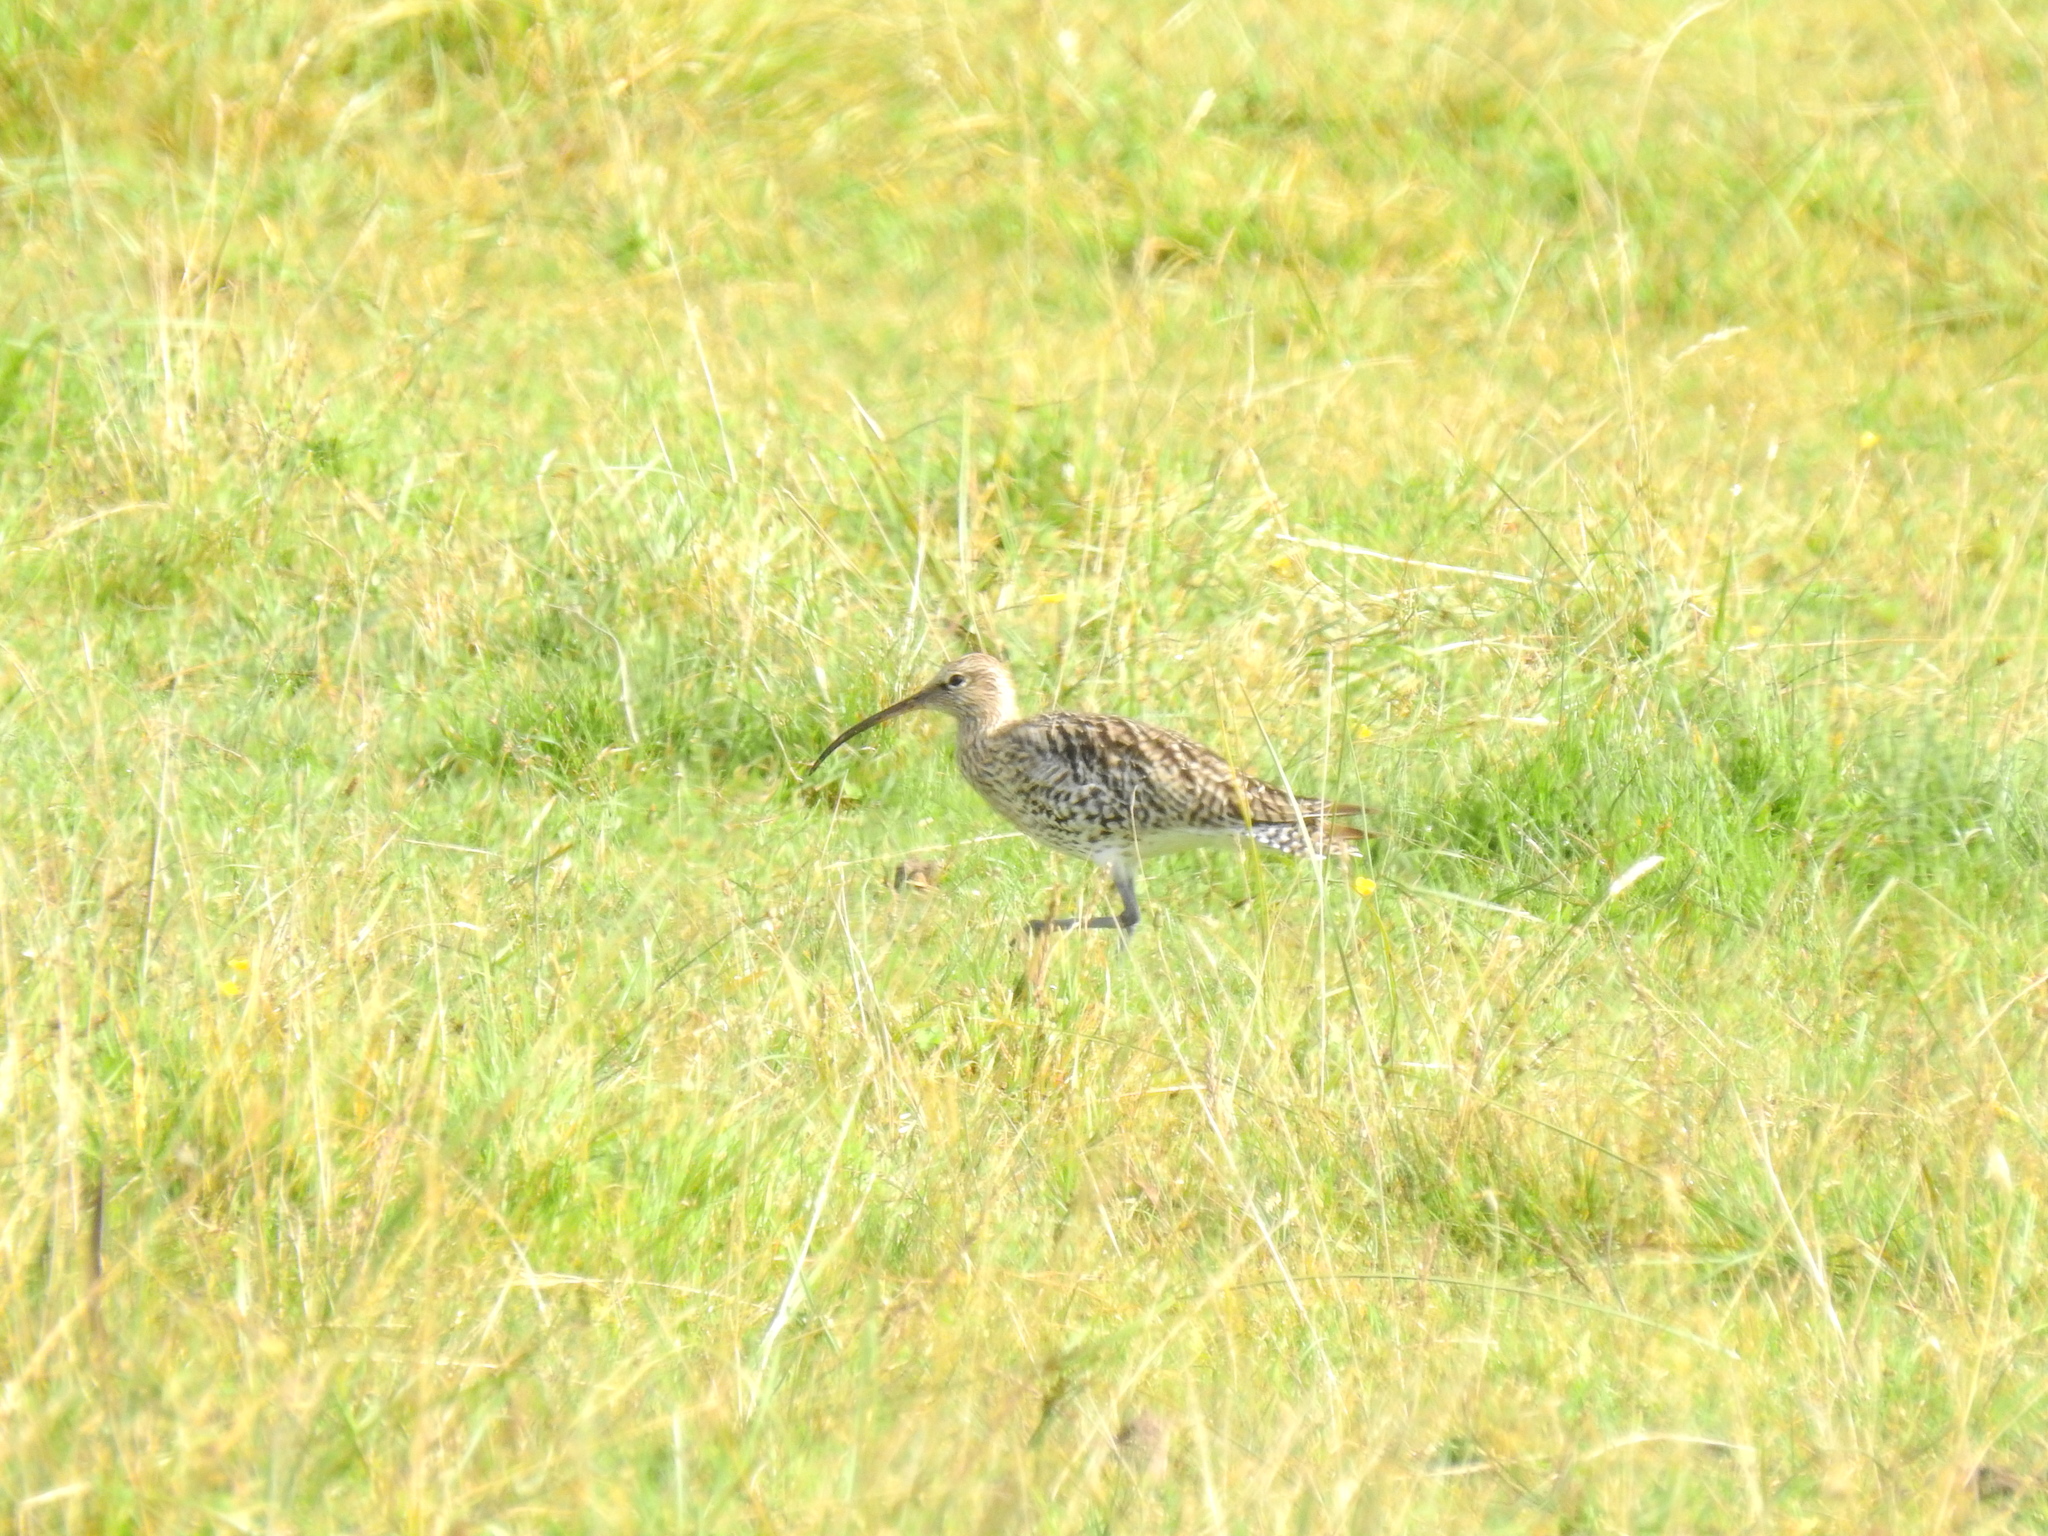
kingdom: Animalia
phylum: Chordata
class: Aves
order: Charadriiformes
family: Scolopacidae
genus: Numenius
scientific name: Numenius arquata
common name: Eurasian curlew
